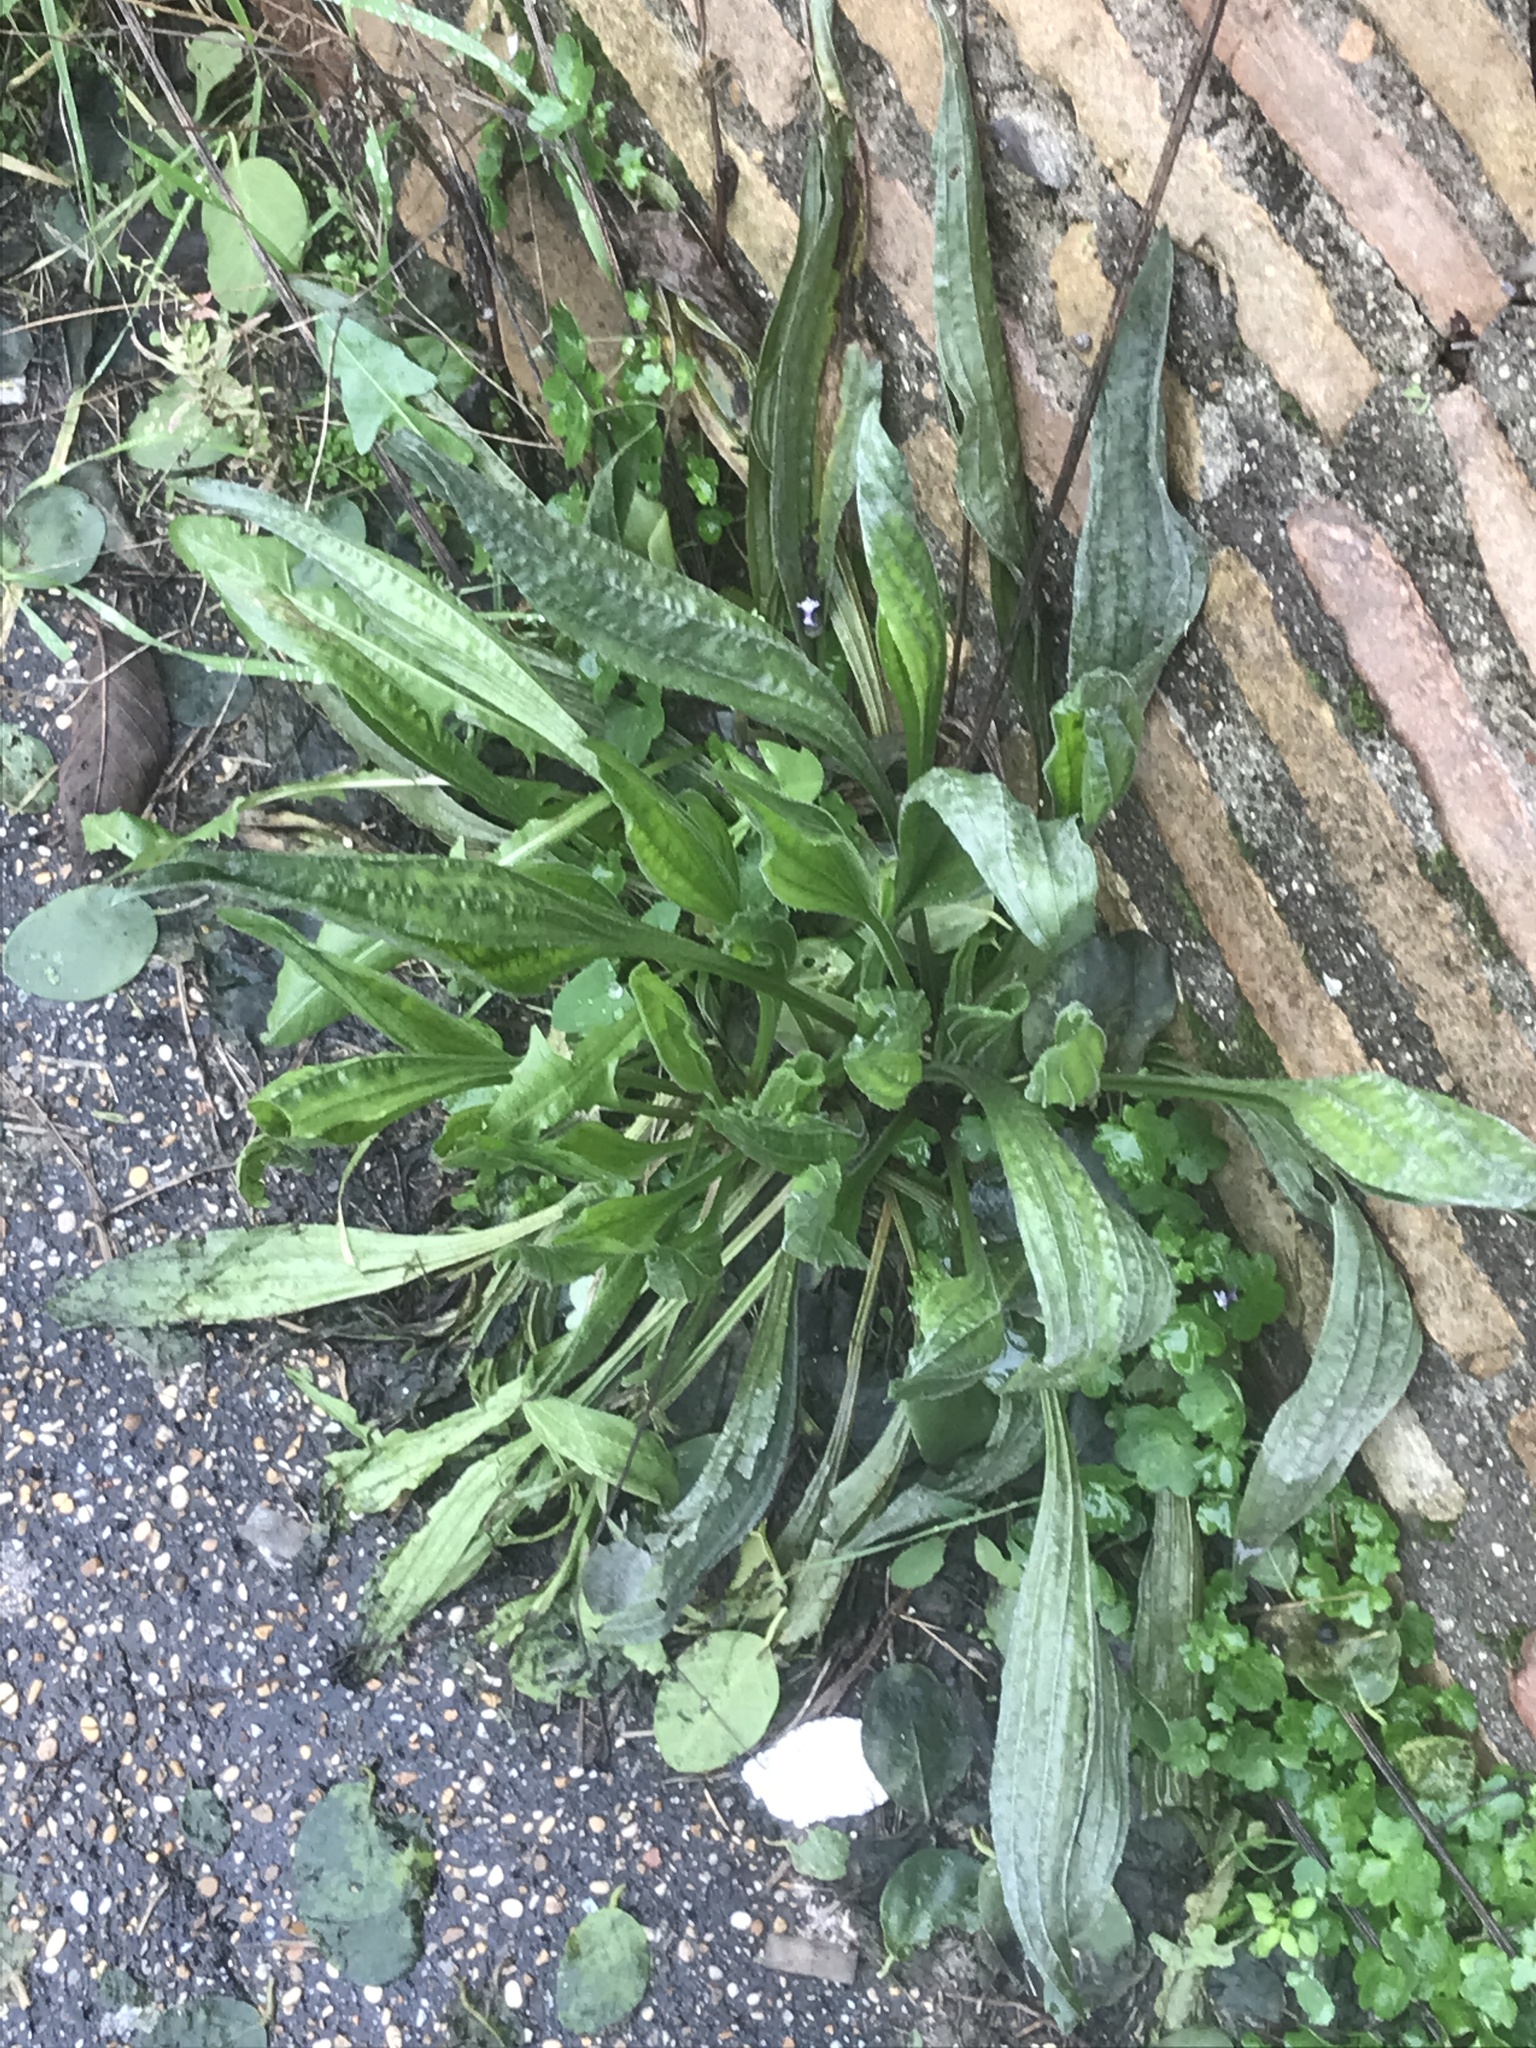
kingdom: Plantae
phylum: Tracheophyta
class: Magnoliopsida
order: Lamiales
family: Plantaginaceae
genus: Plantago
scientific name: Plantago lanceolata
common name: Ribwort plantain
